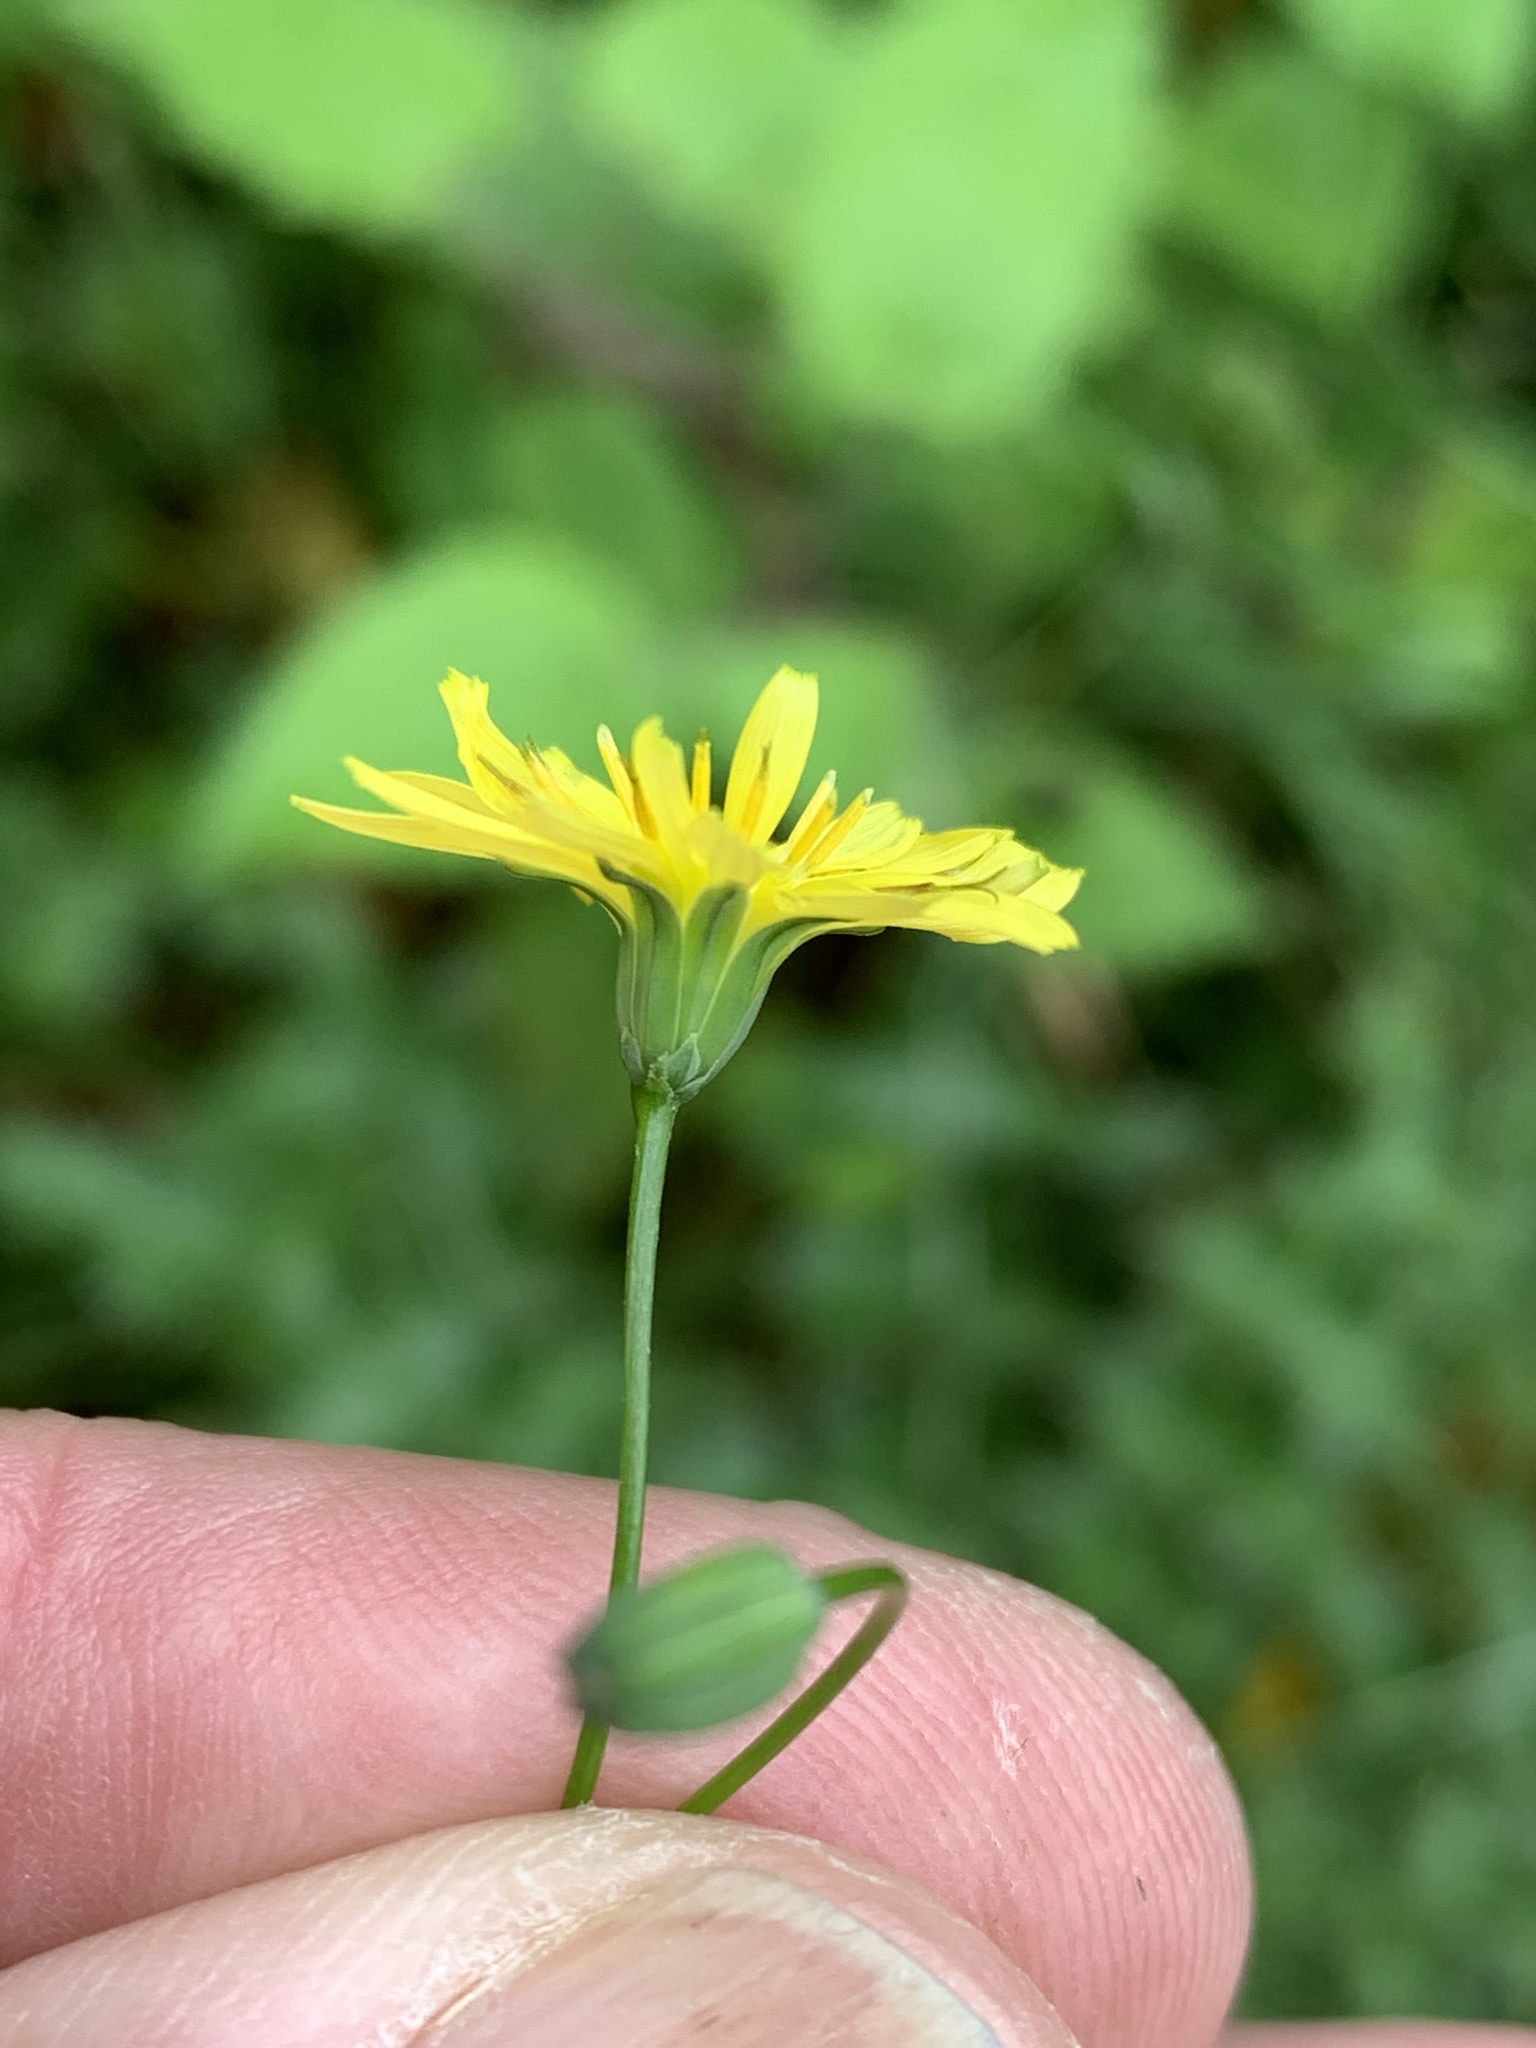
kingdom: Plantae
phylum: Tracheophyta
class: Magnoliopsida
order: Asterales
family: Asteraceae
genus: Lapsana
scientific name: Lapsana communis
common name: Nipplewort
